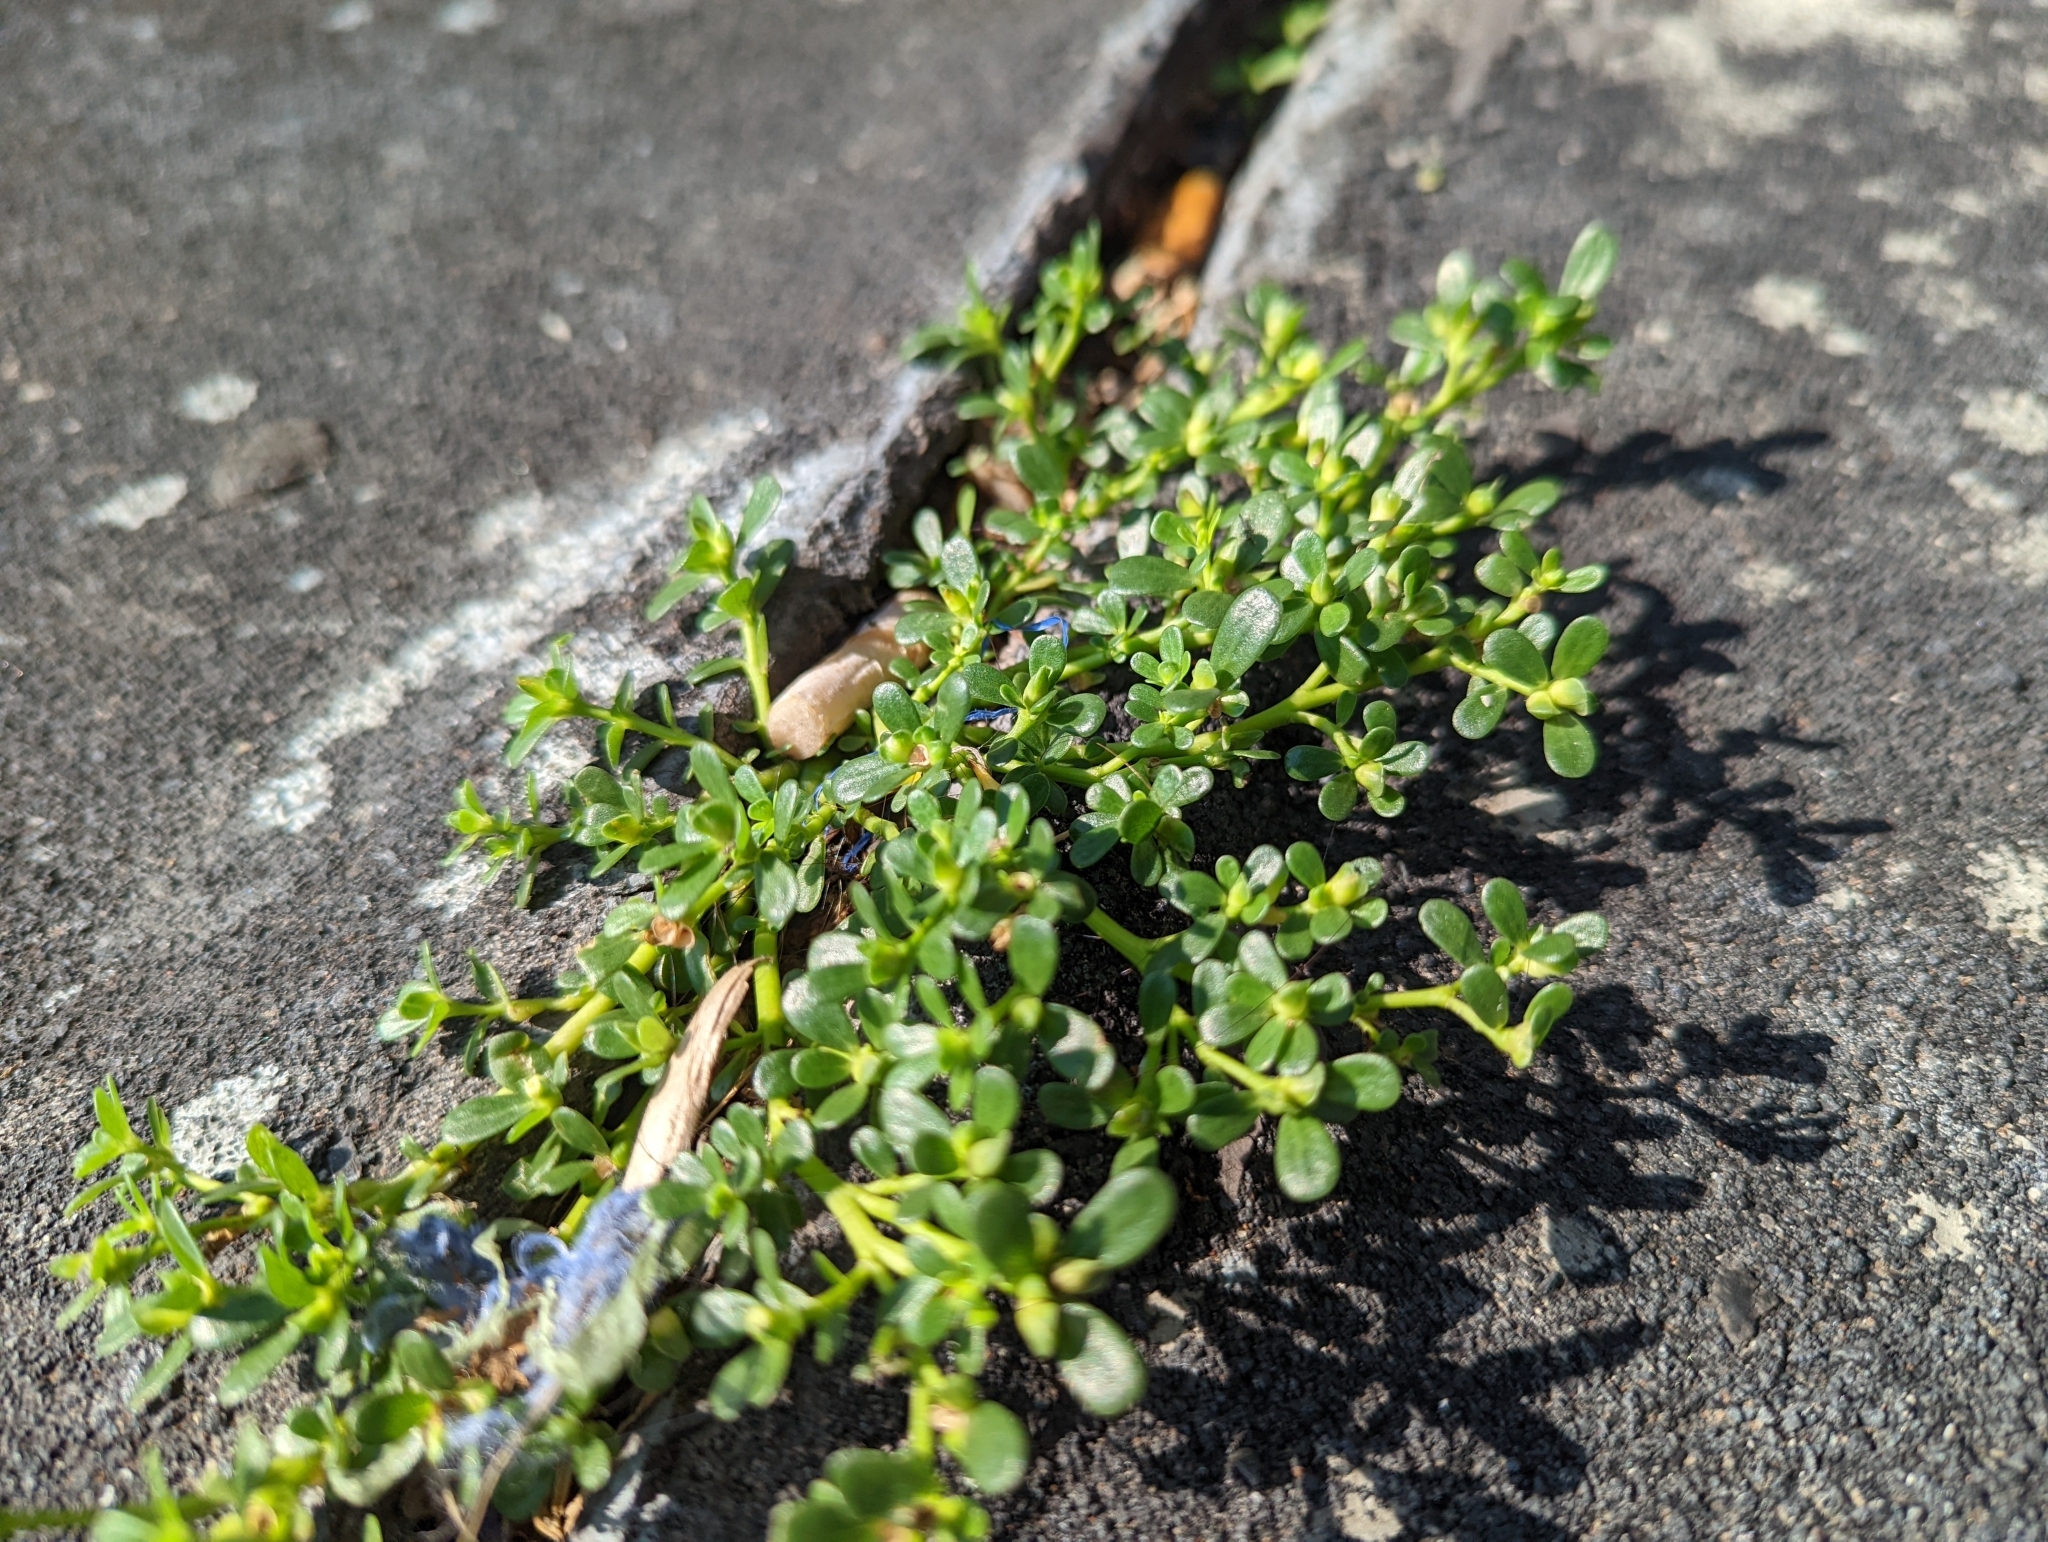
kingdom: Plantae
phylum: Tracheophyta
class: Magnoliopsida
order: Caryophyllales
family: Portulacaceae
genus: Portulaca
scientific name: Portulaca oleracea
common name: Common purslane
